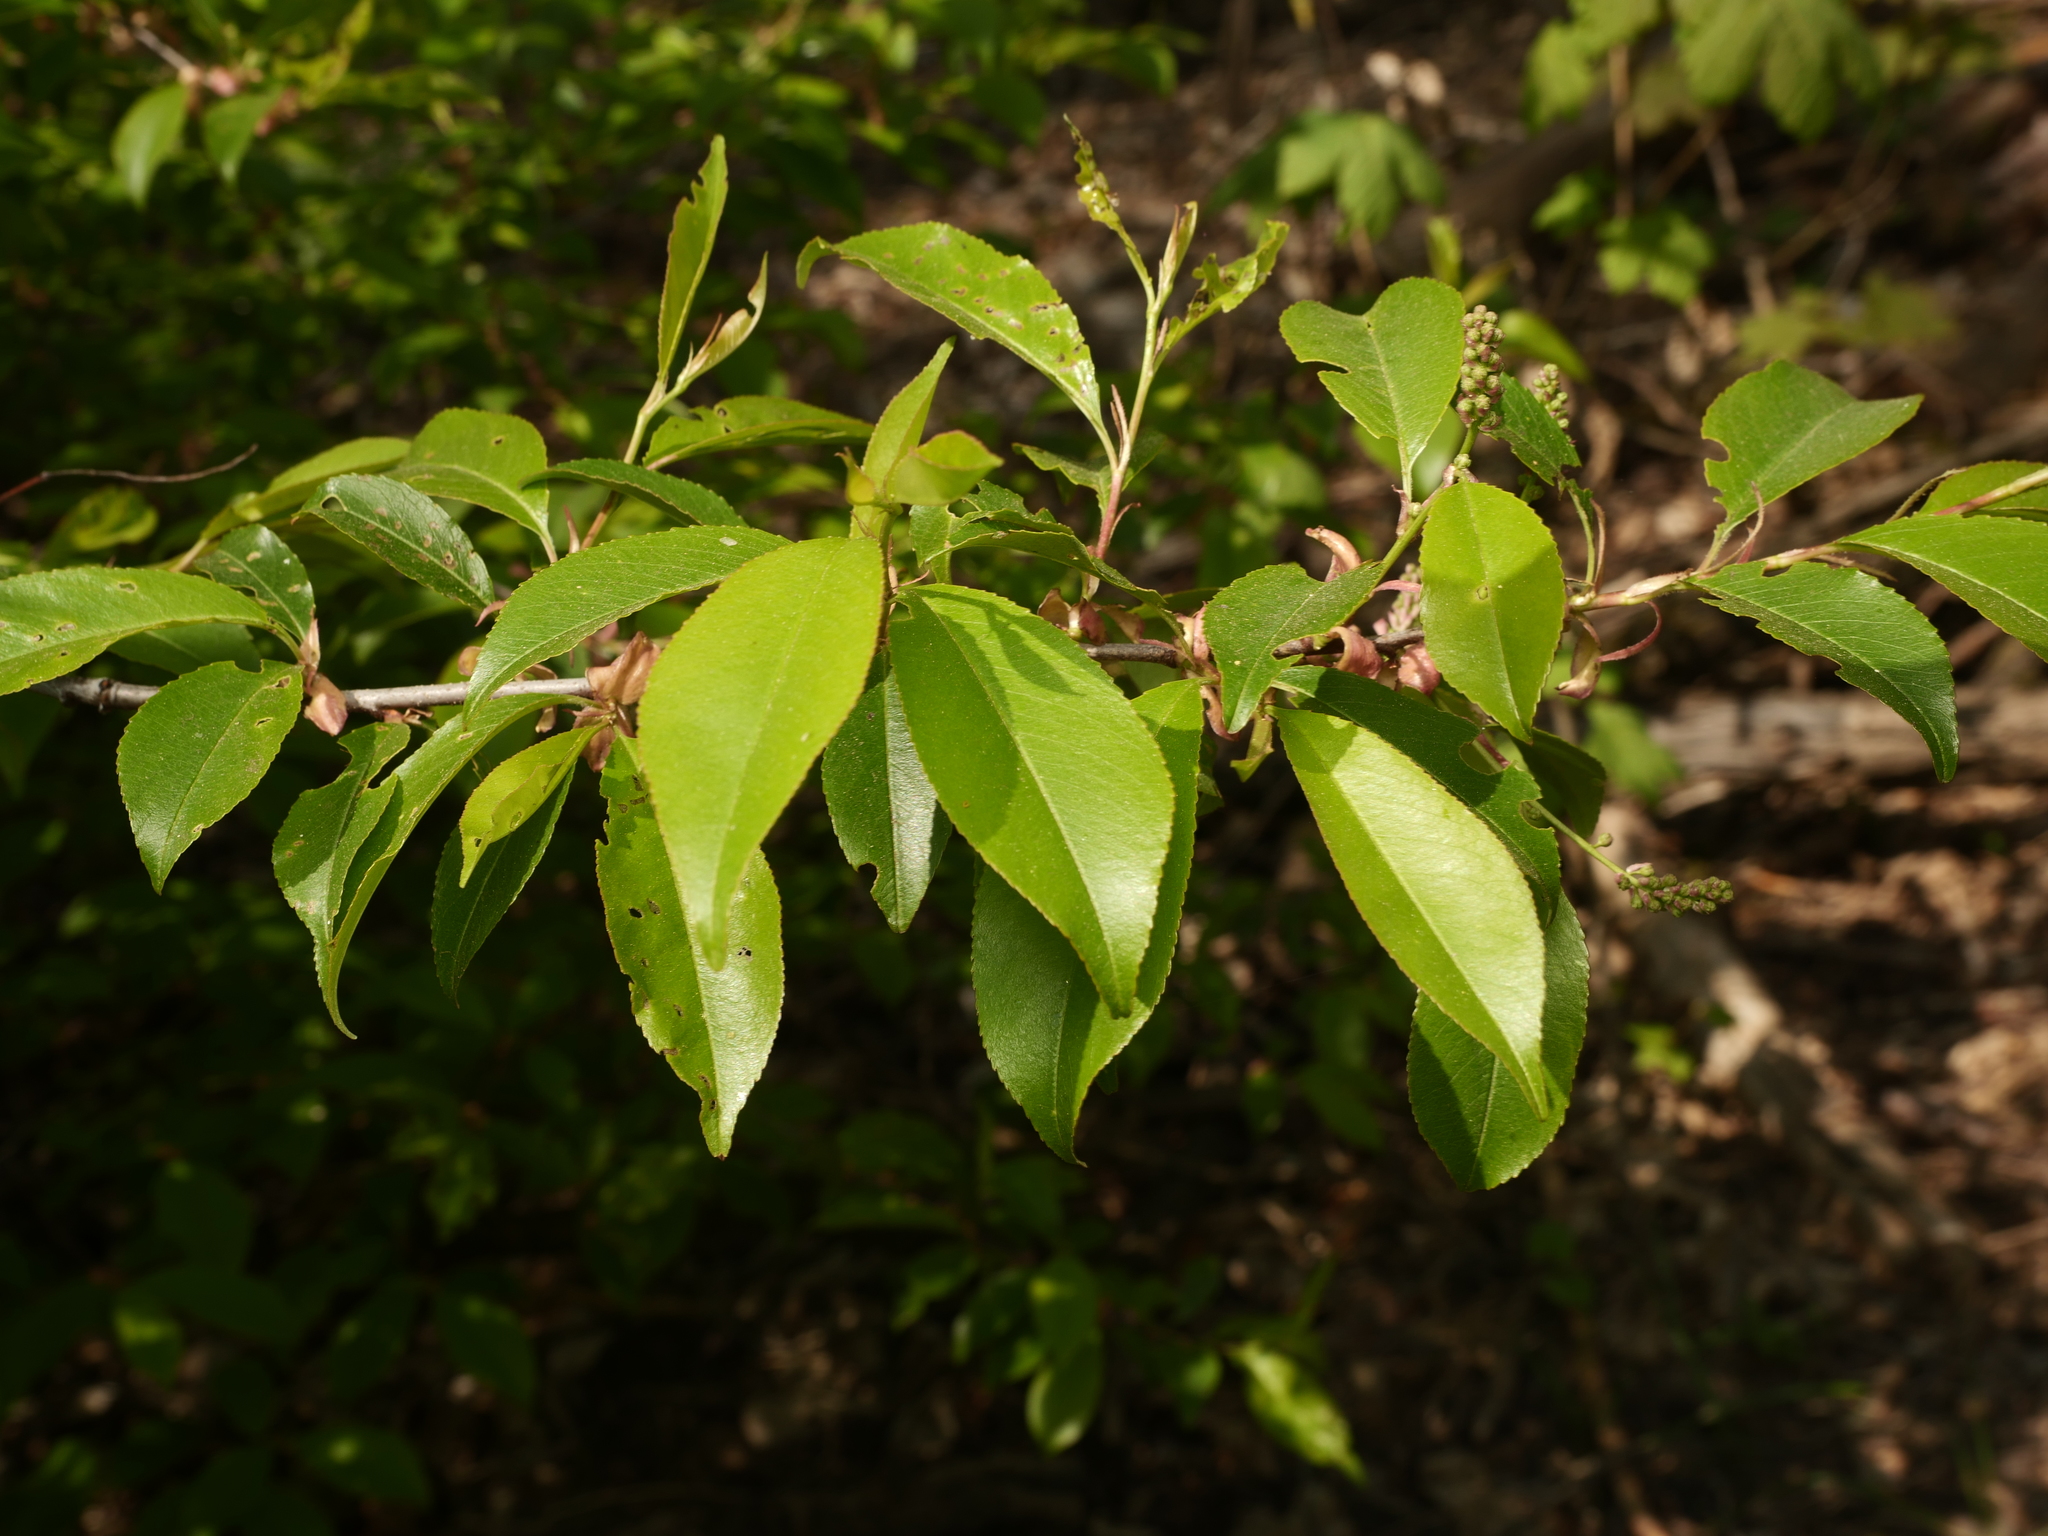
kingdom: Plantae
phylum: Tracheophyta
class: Magnoliopsida
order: Rosales
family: Rosaceae
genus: Prunus
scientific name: Prunus serotina
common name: Black cherry
